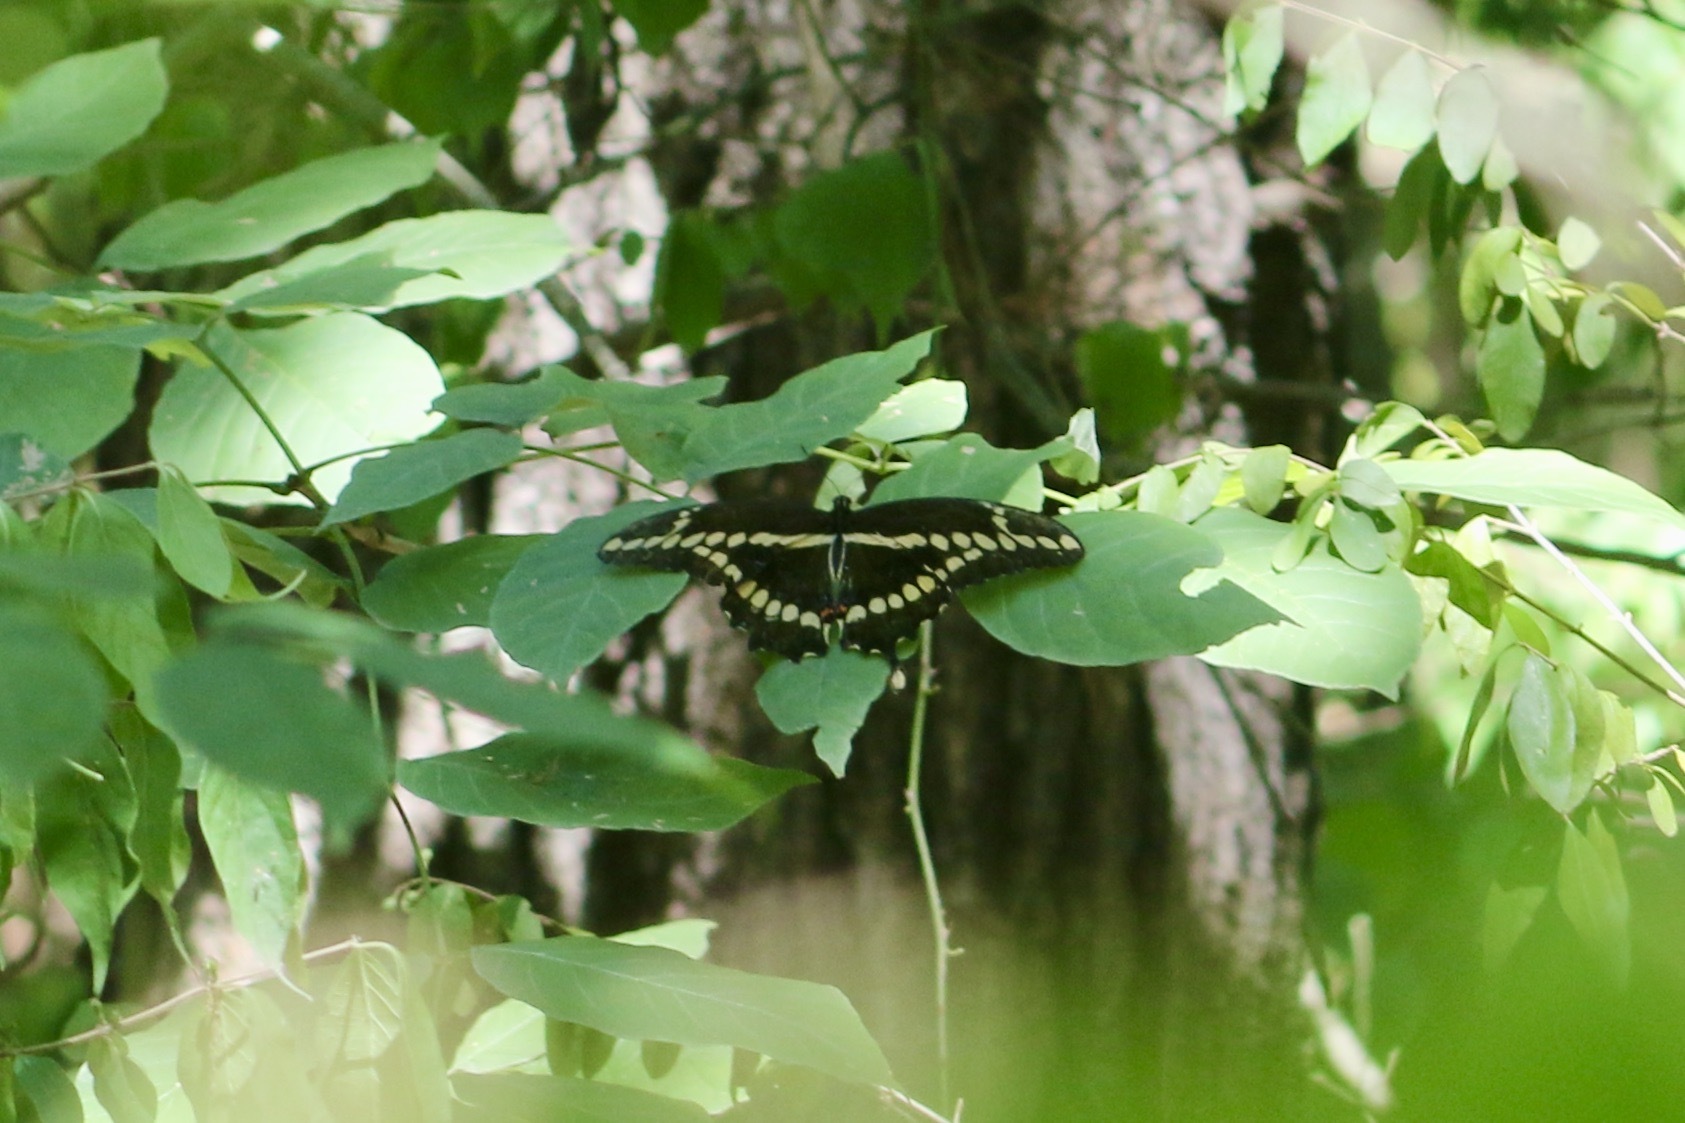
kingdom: Animalia
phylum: Arthropoda
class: Insecta
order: Lepidoptera
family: Papilionidae
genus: Papilio
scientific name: Papilio cresphontes
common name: Giant swallowtail
